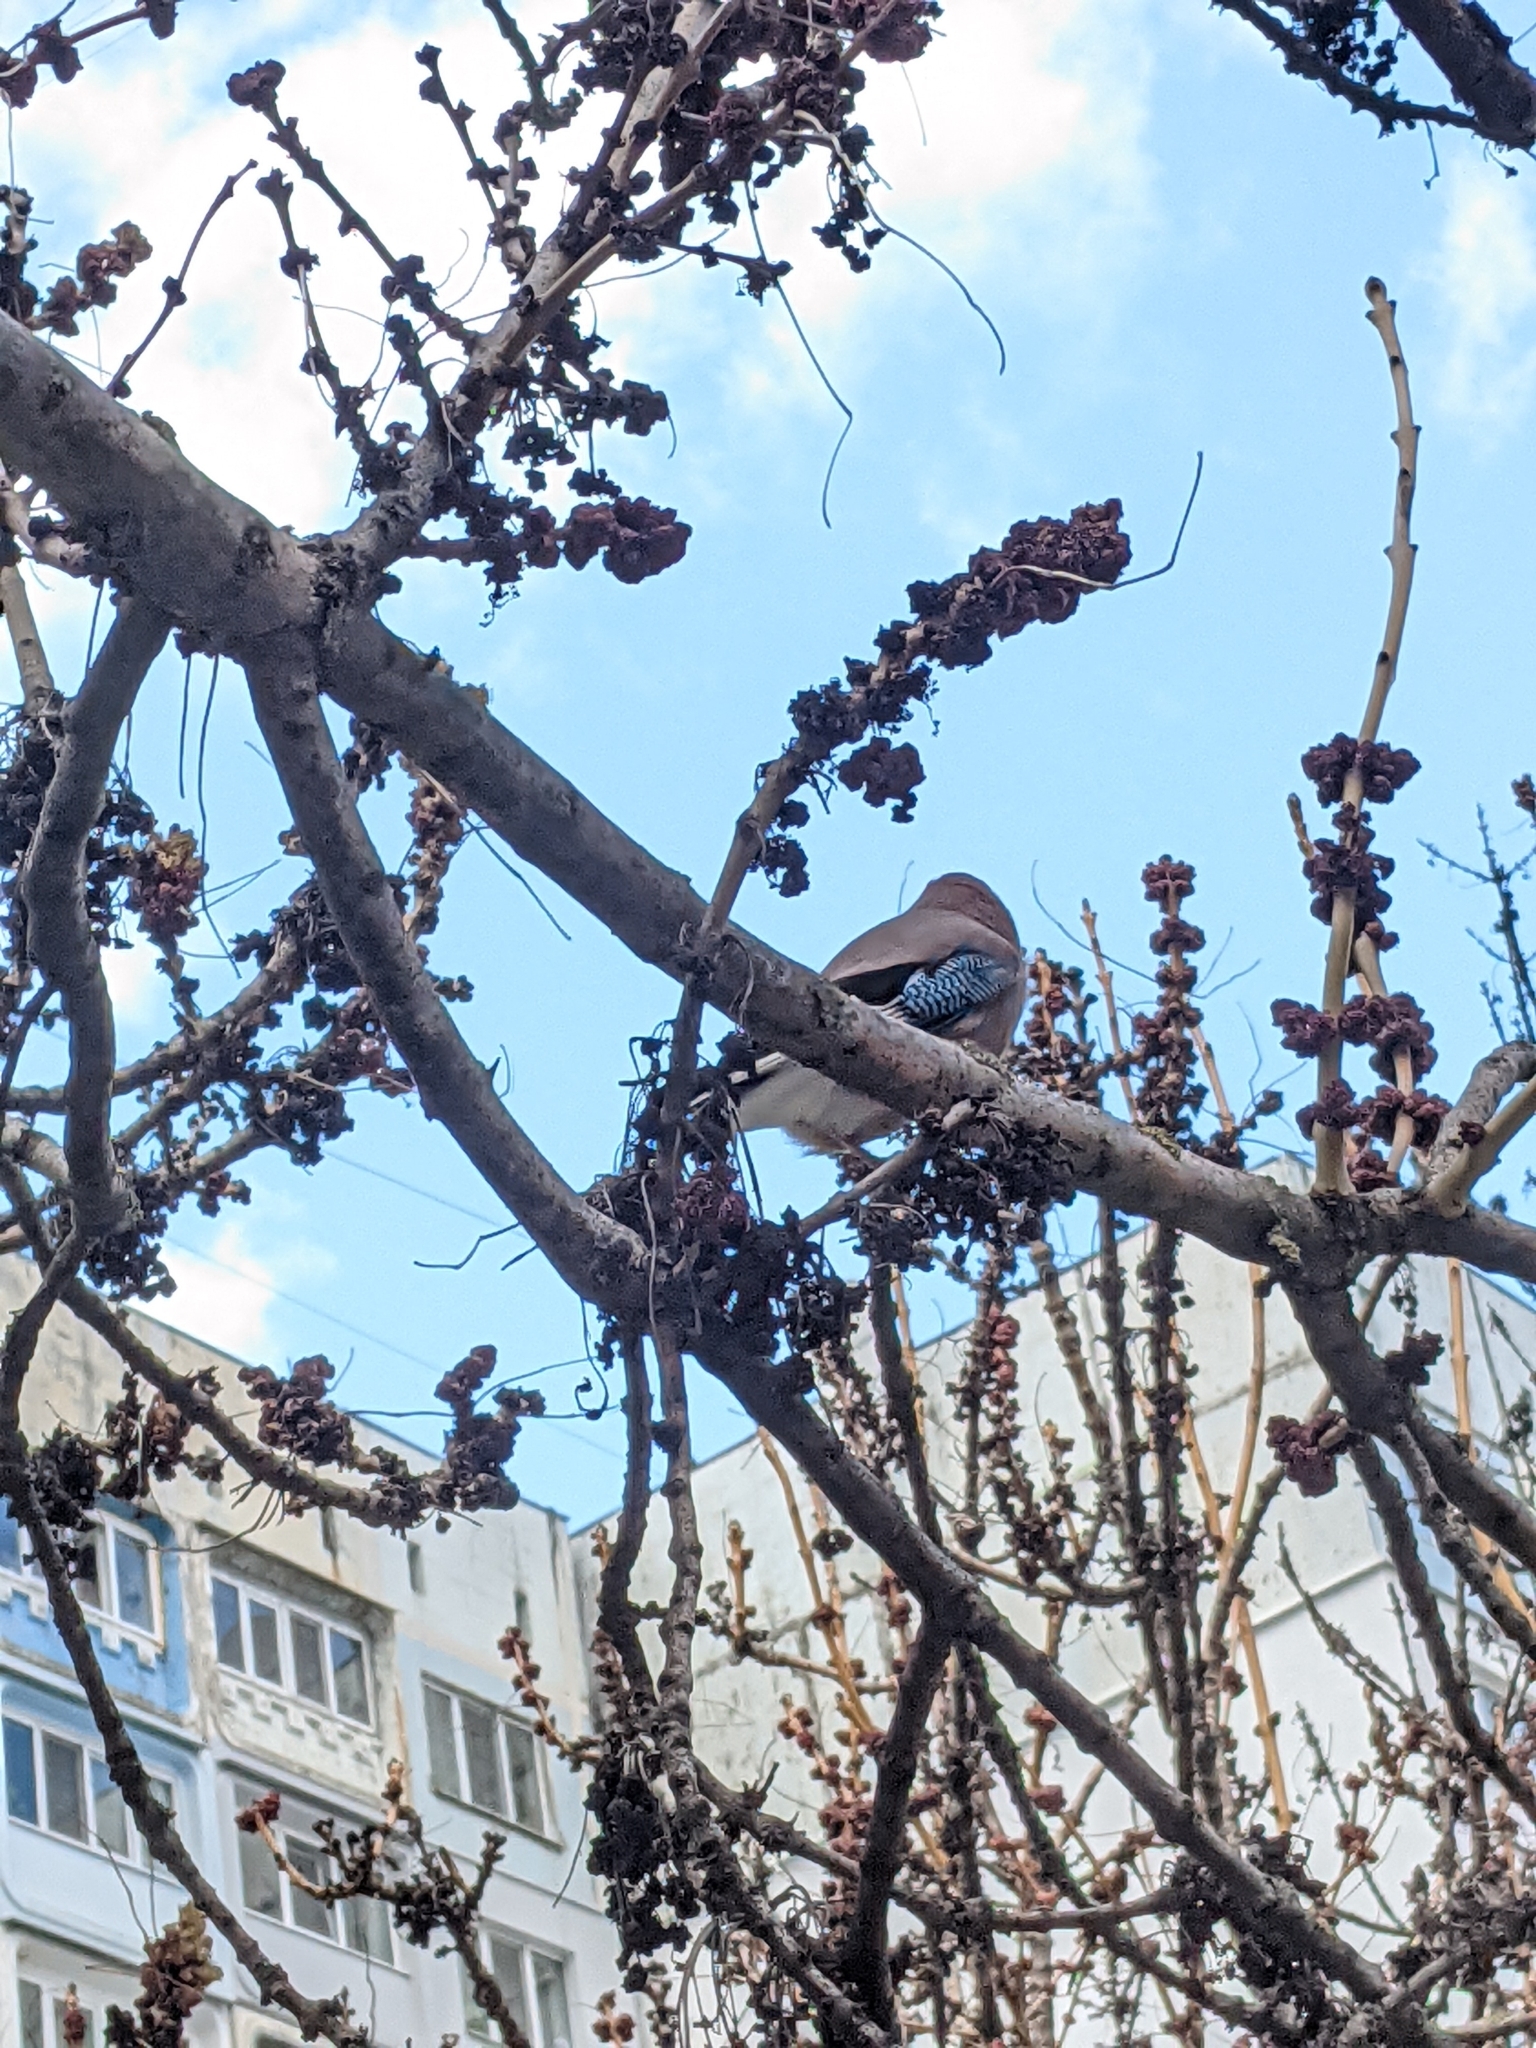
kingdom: Animalia
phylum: Chordata
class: Aves
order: Passeriformes
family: Corvidae
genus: Garrulus
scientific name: Garrulus glandarius
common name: Eurasian jay
